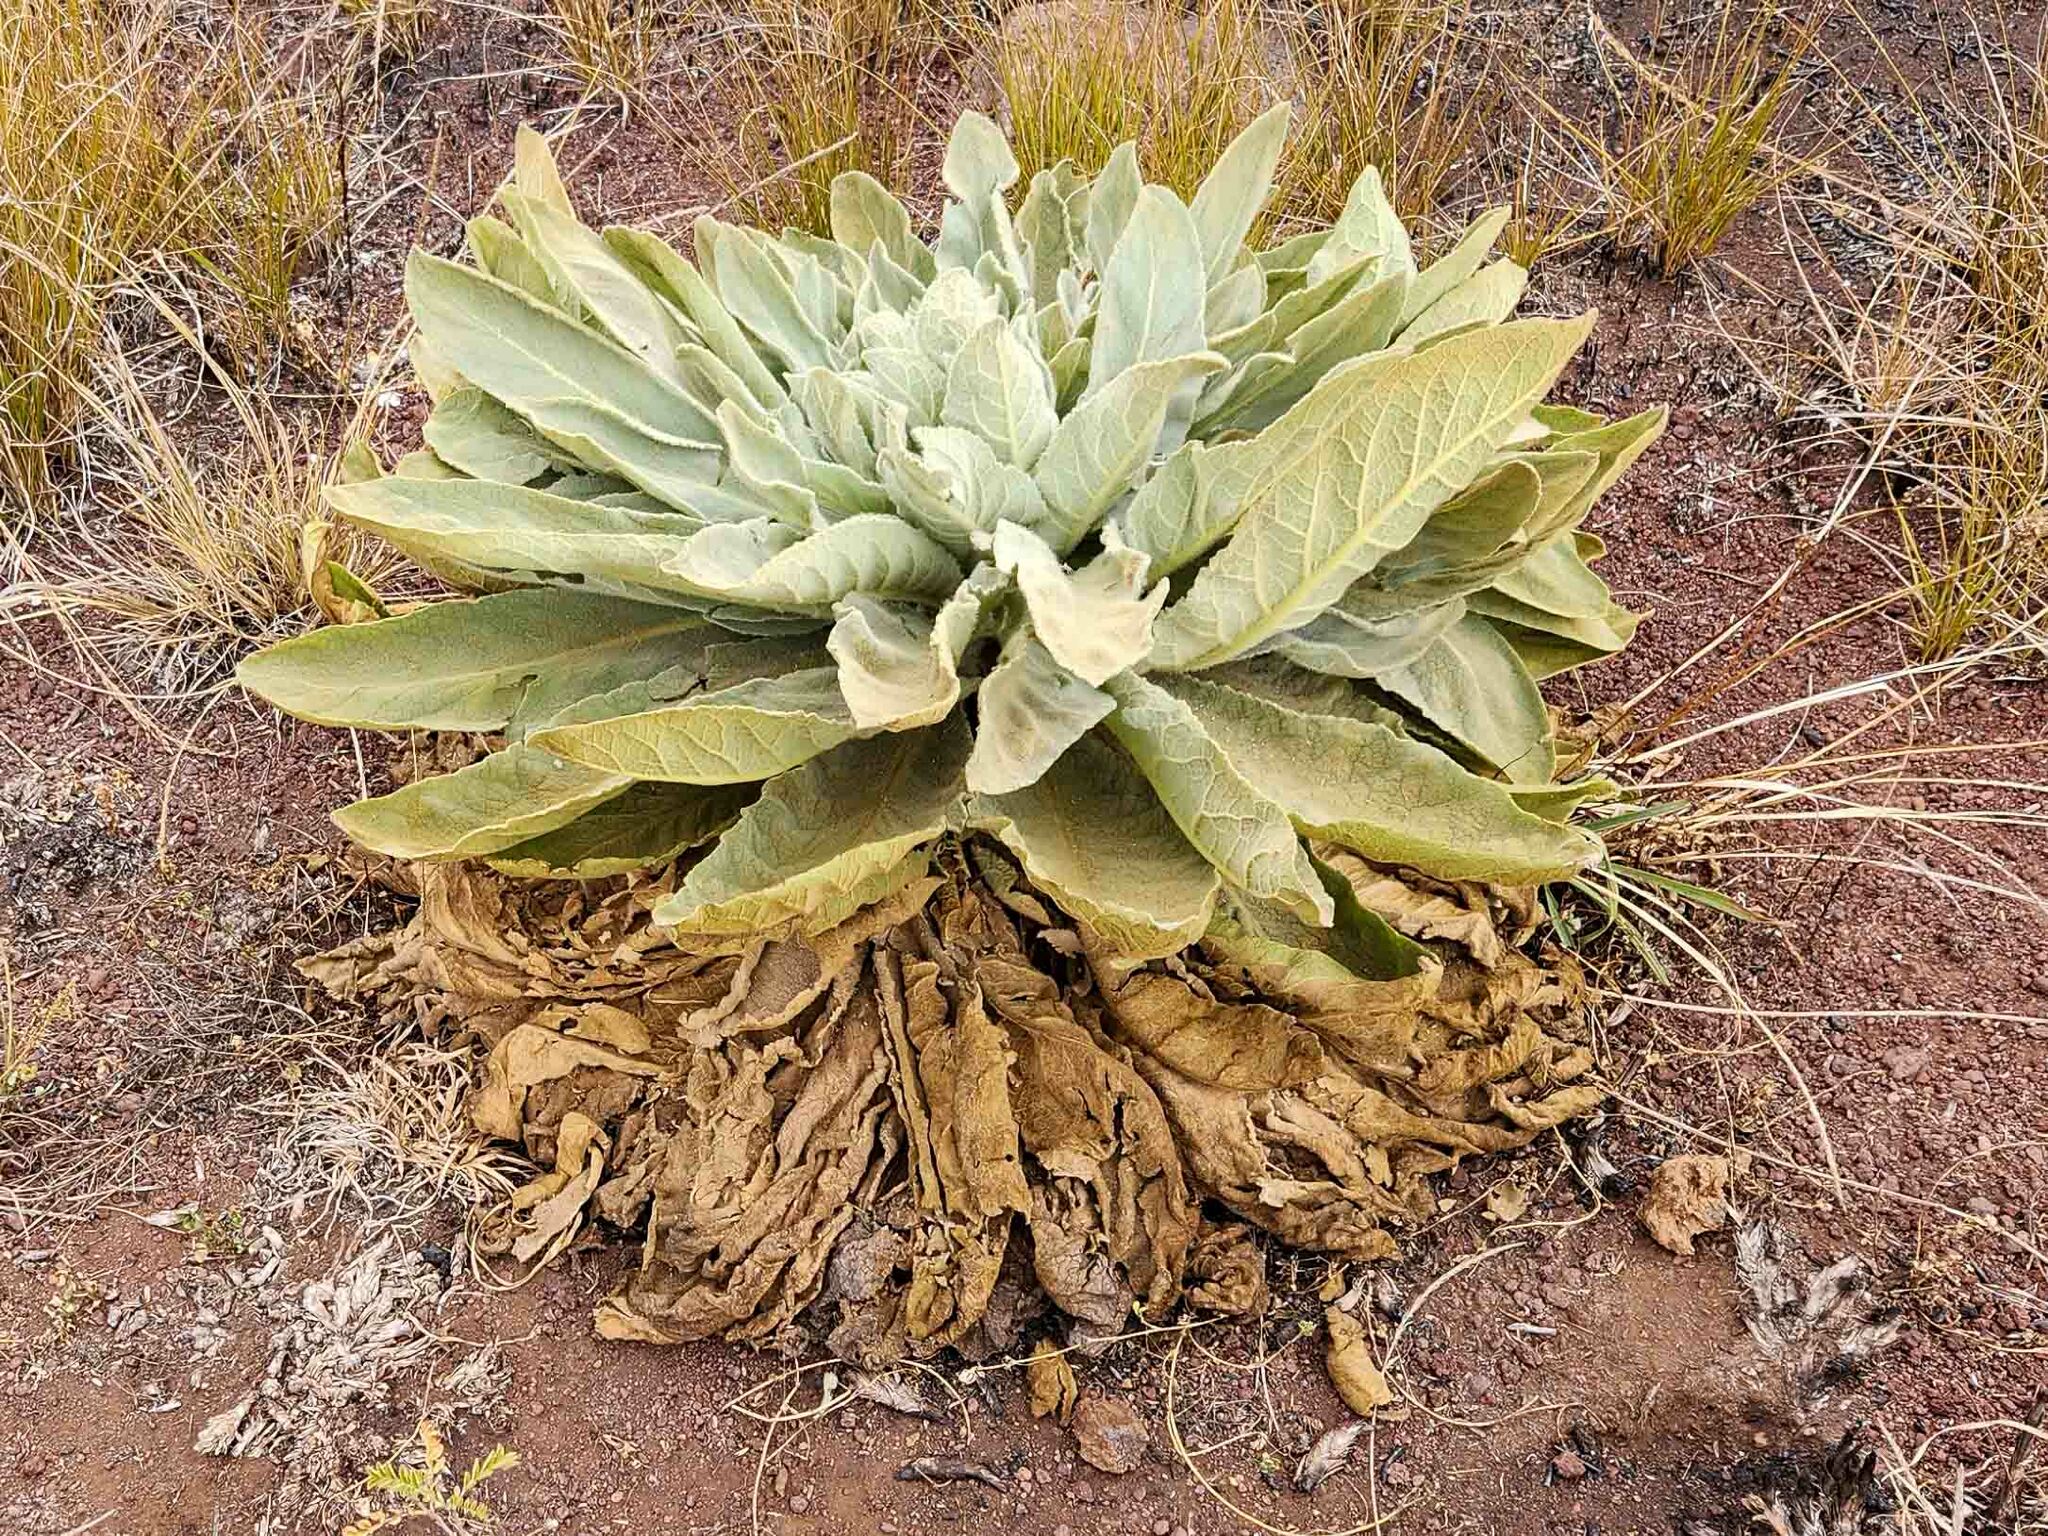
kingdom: Plantae
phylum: Tracheophyta
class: Magnoliopsida
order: Lamiales
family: Scrophulariaceae
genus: Verbascum
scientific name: Verbascum thapsus
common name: Common mullein
